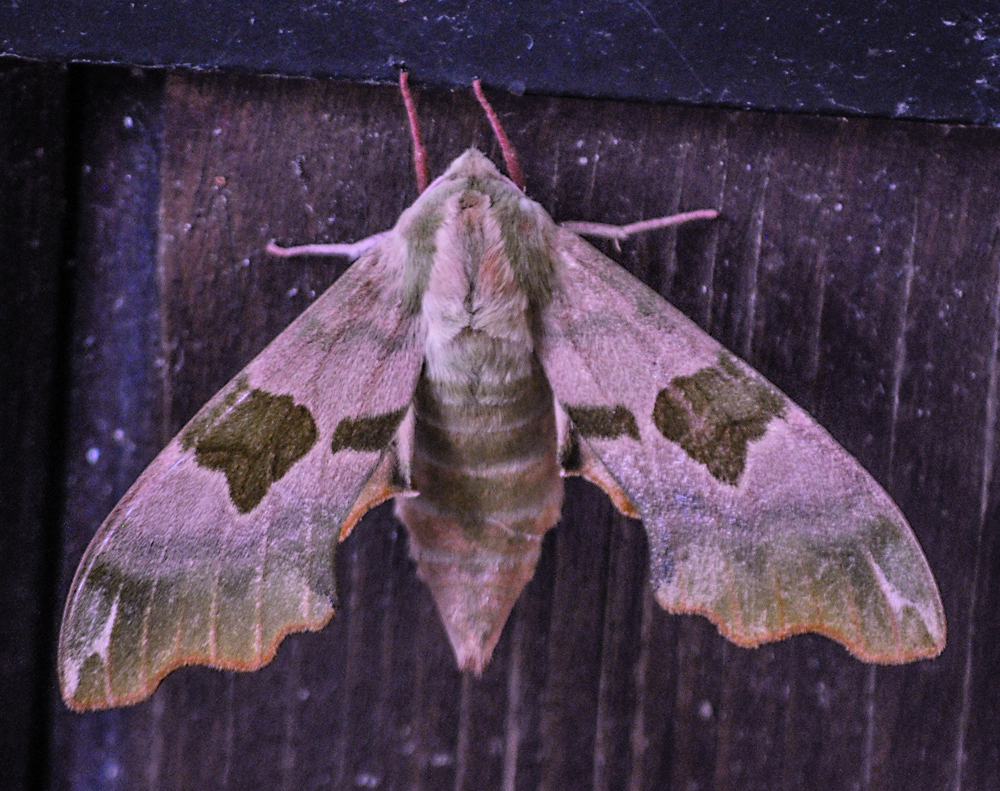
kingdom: Animalia
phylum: Arthropoda
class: Insecta
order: Lepidoptera
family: Sphingidae
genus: Mimas
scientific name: Mimas tiliae
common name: Lime hawk-moth
